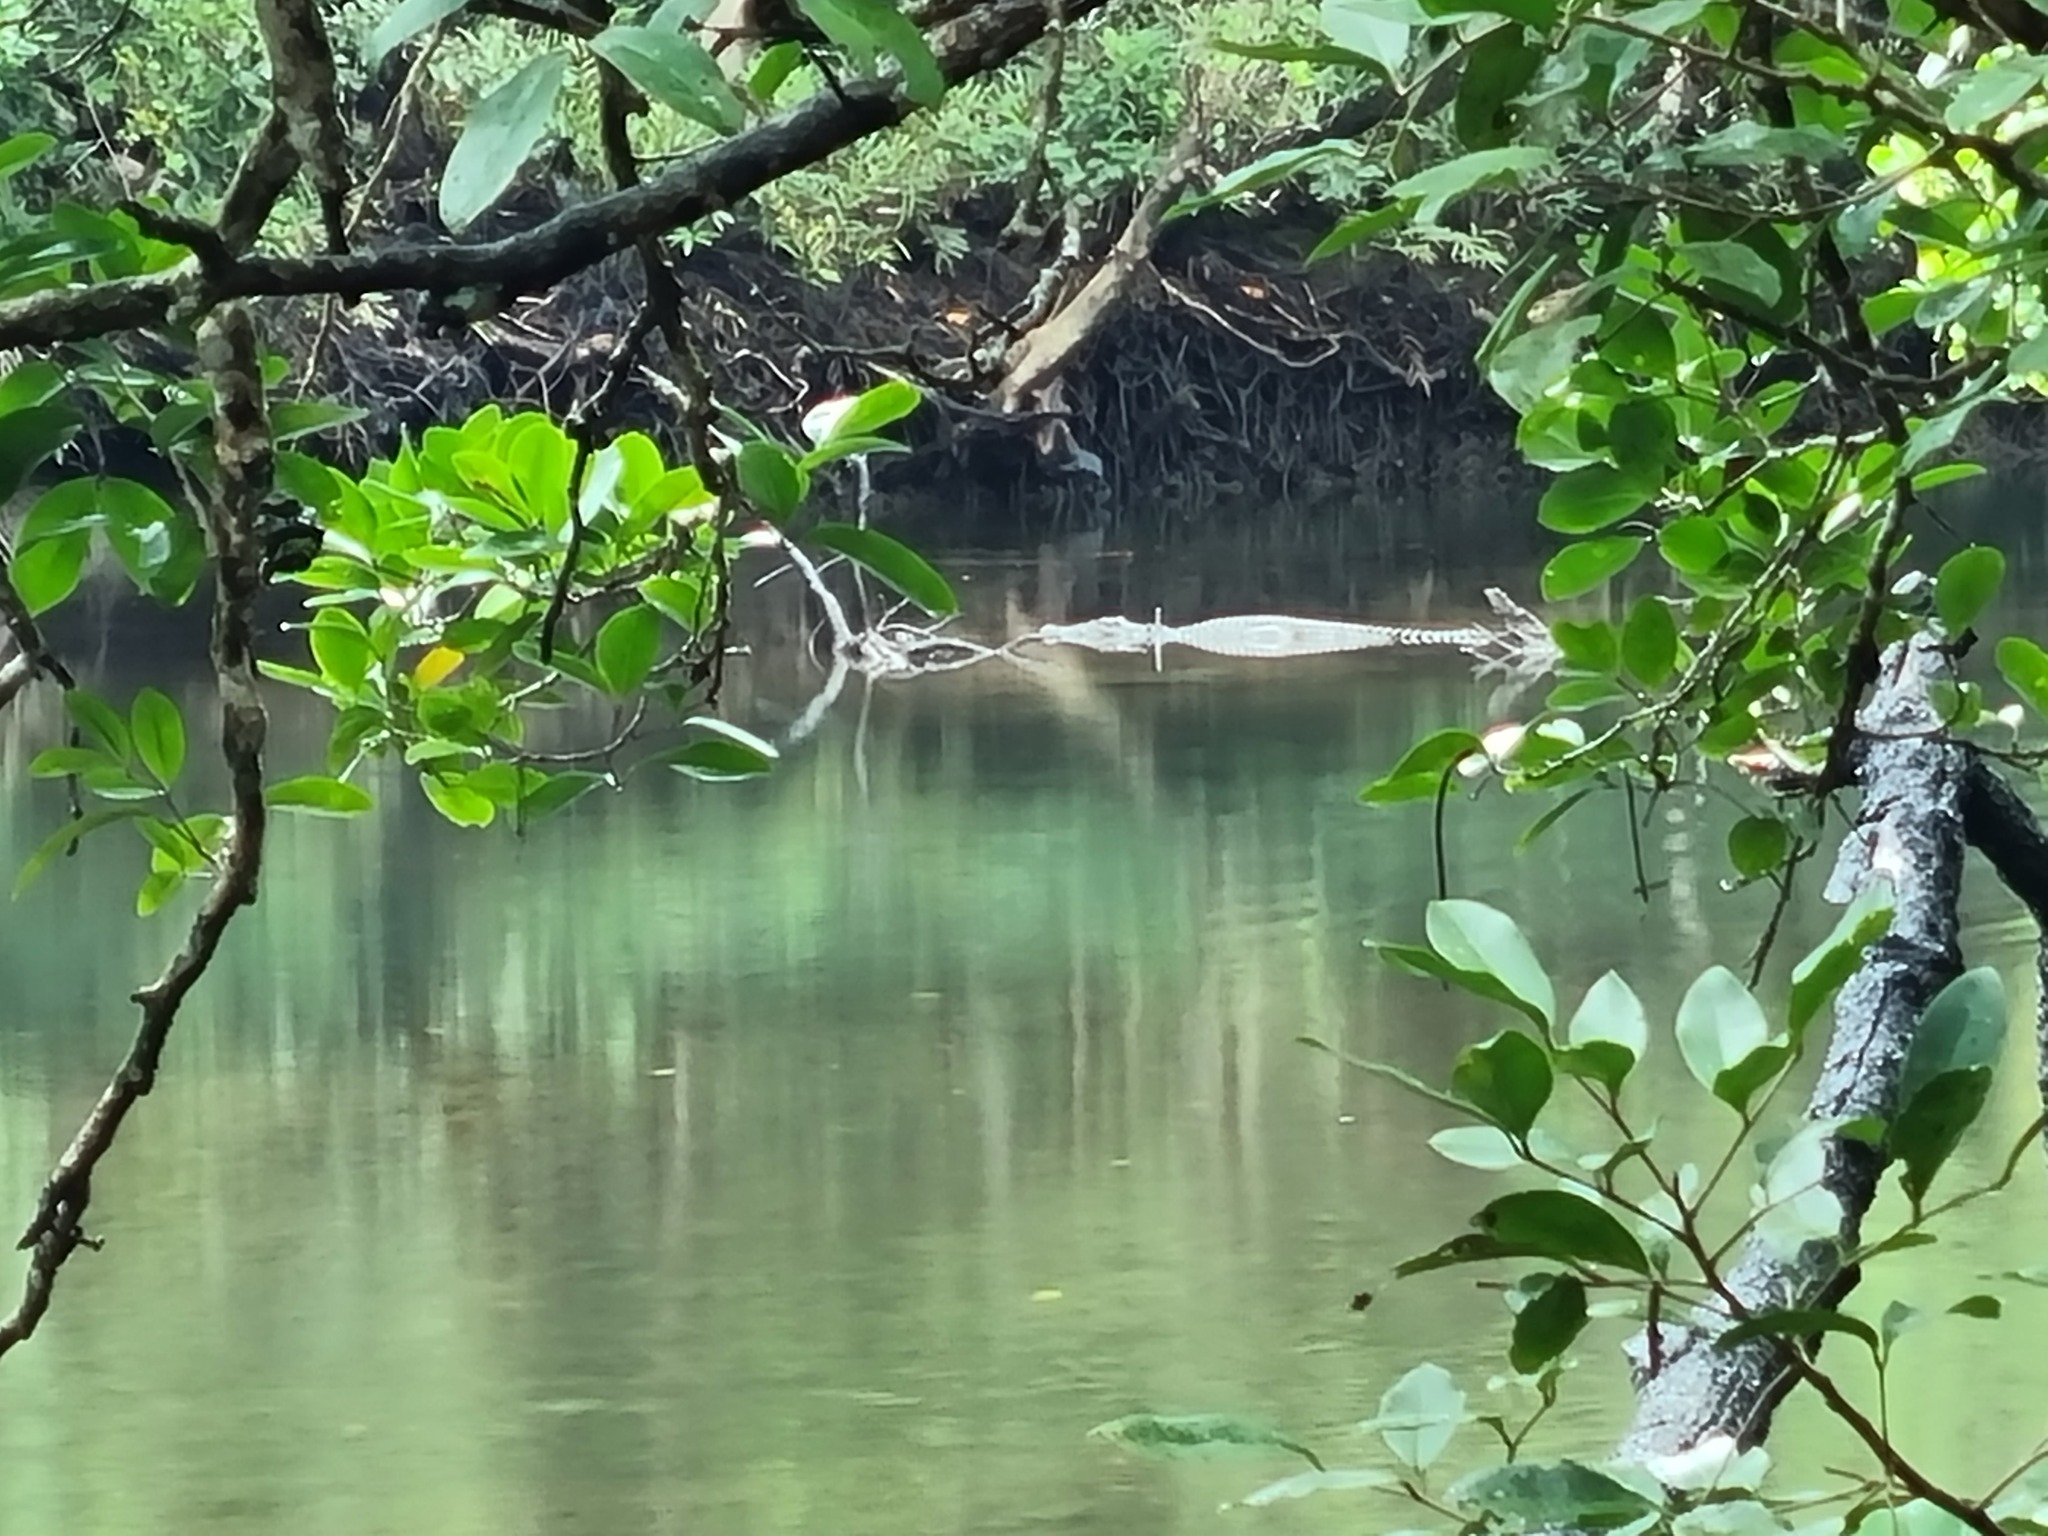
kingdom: Animalia
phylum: Chordata
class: Crocodylia
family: Crocodylidae
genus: Crocodylus
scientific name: Crocodylus porosus
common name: Saltwater crocodile
